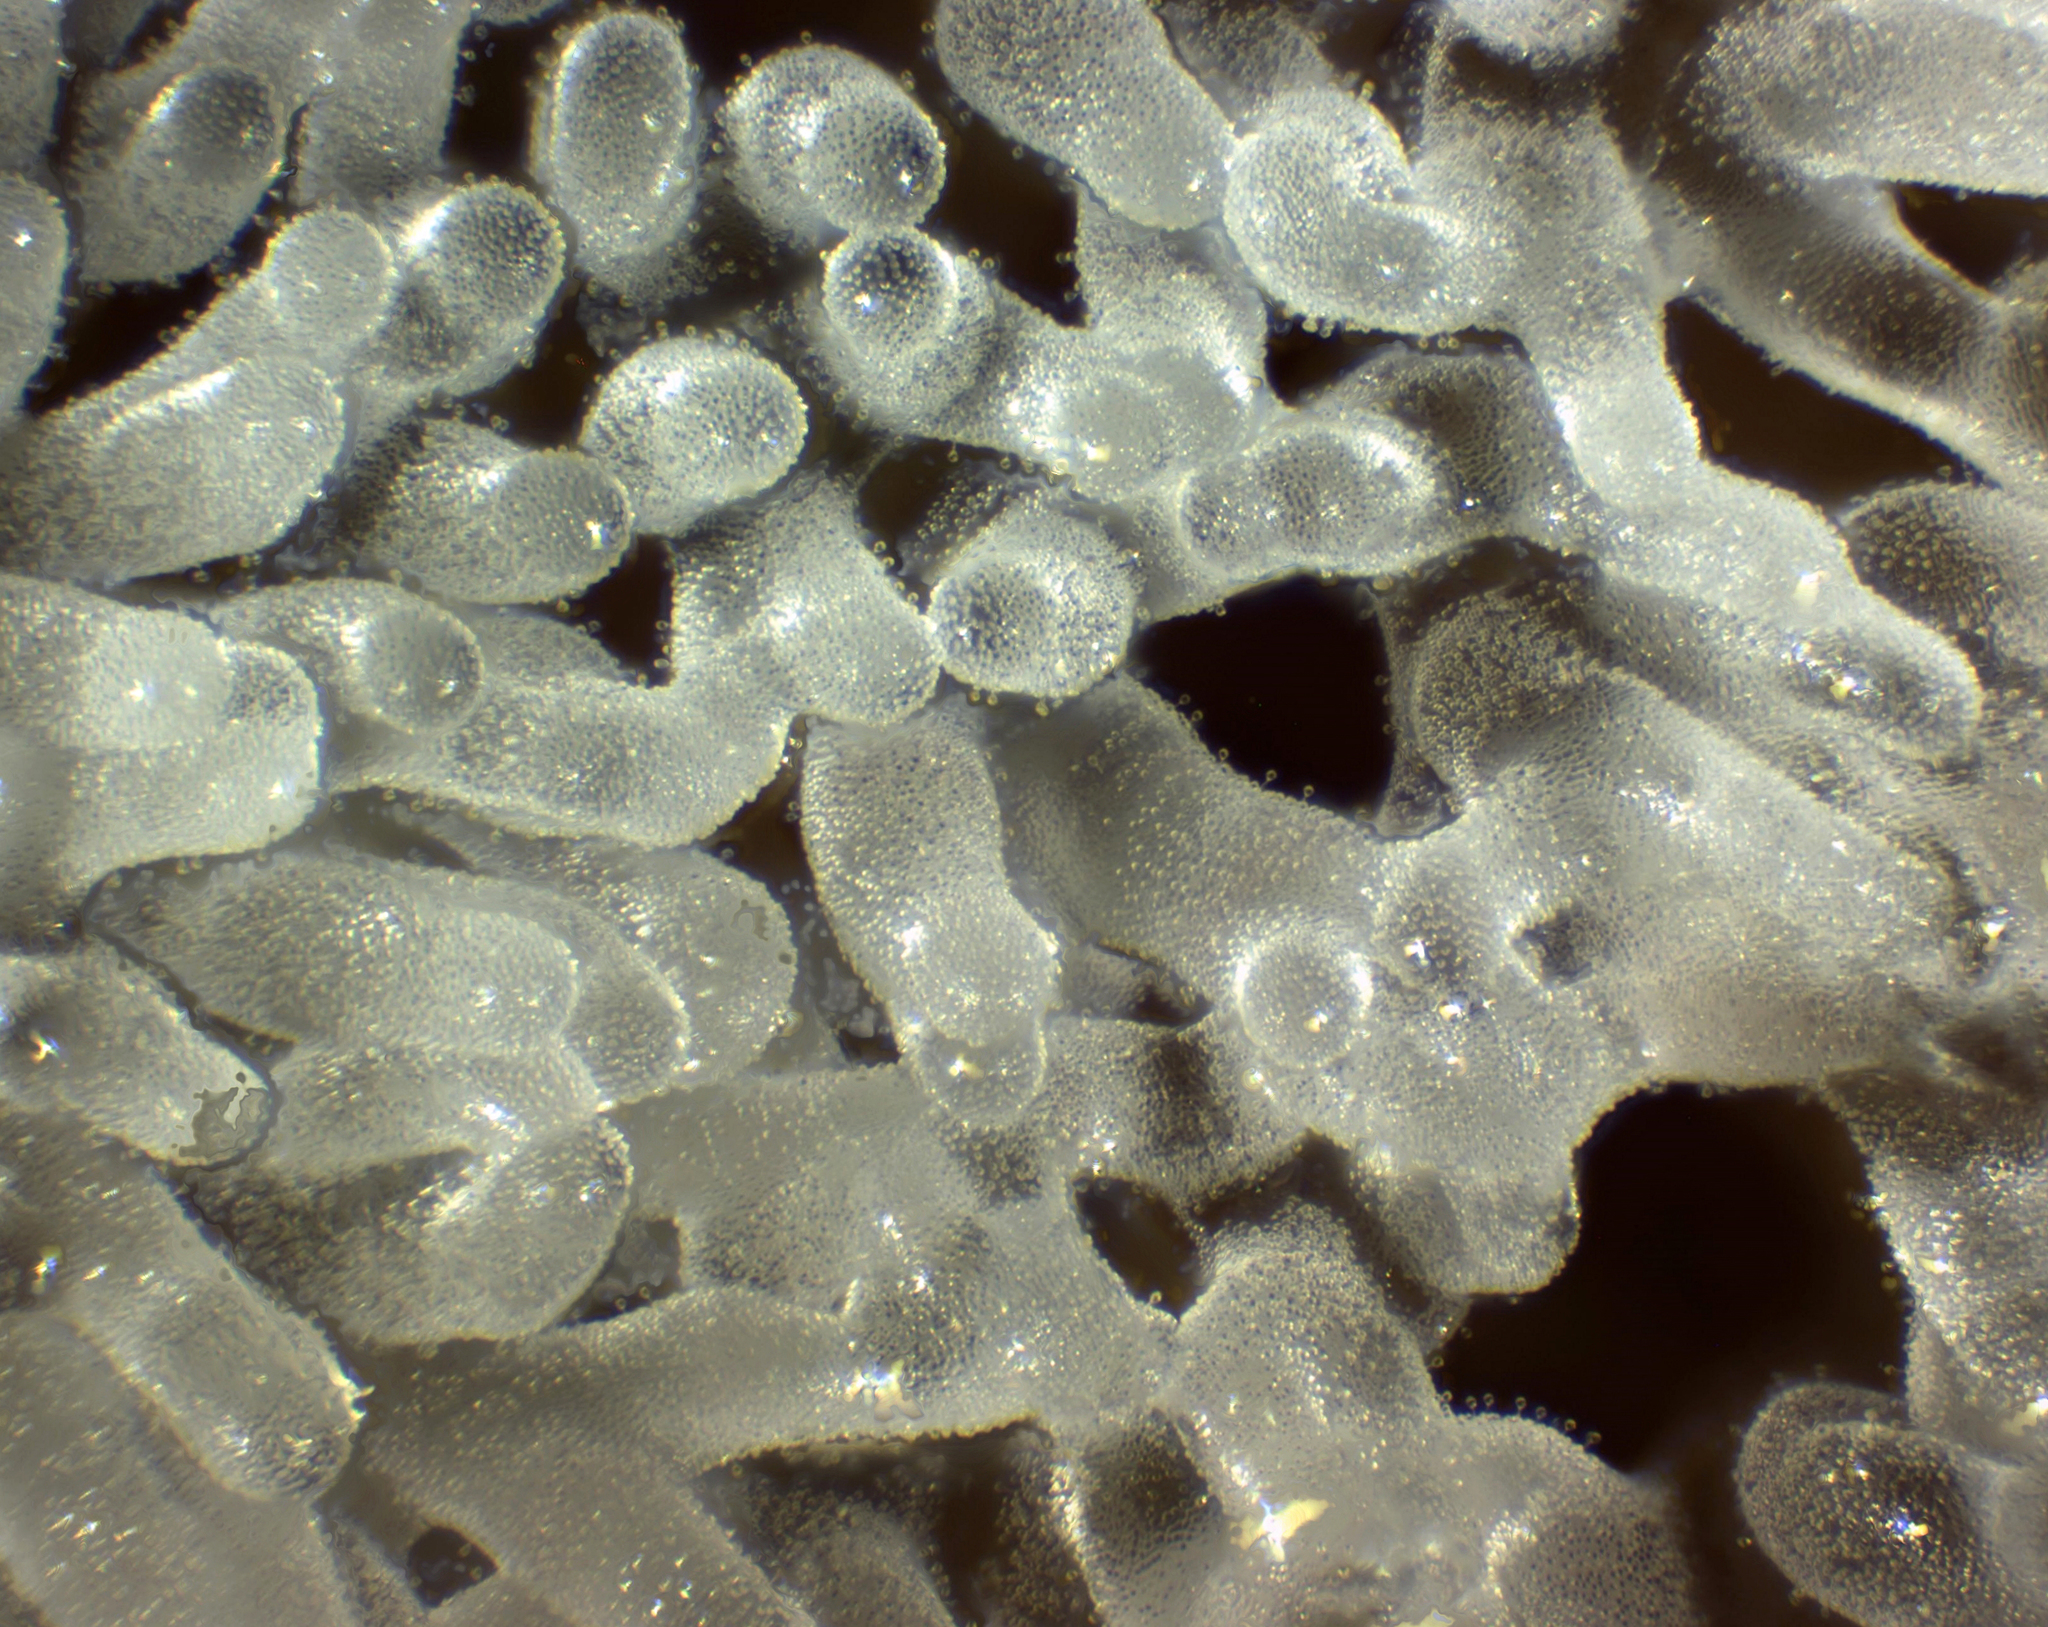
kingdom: Protozoa
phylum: Mycetozoa
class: Protosteliomycetes
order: Ceratiomyxales
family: Ceratiomyxaceae
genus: Ceratiomyxa
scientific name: Ceratiomyxa fruticulosa
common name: Honeycomb coral slime mold
